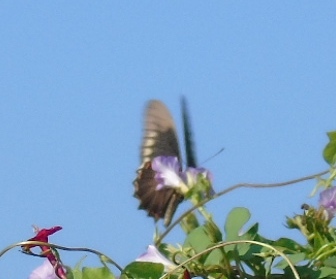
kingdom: Animalia
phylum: Arthropoda
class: Insecta
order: Lepidoptera
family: Papilionidae
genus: Battus
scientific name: Battus polydamas
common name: Polydamas swallowtail
